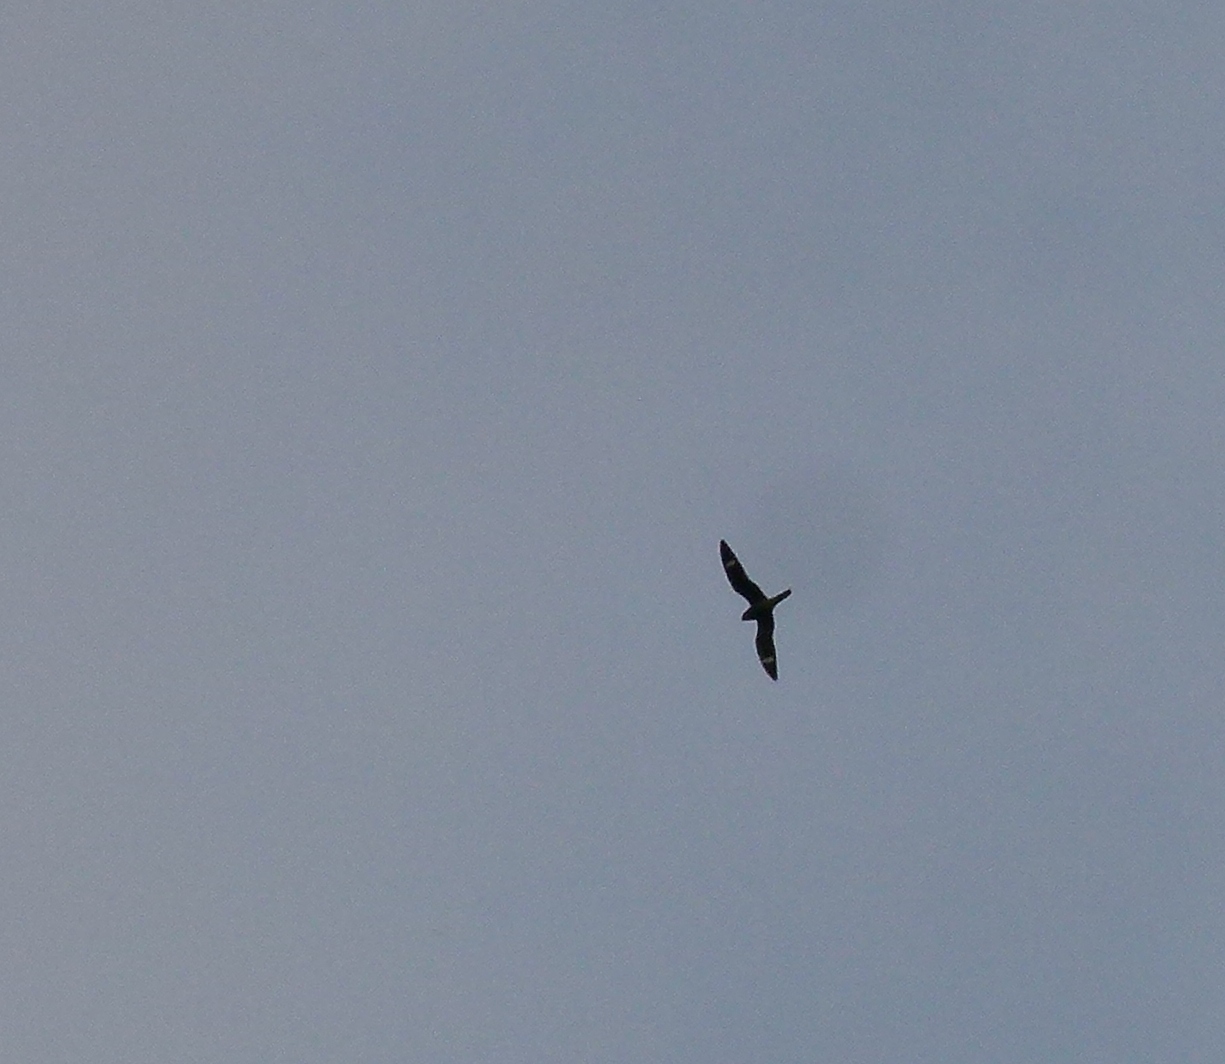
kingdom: Animalia
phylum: Chordata
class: Aves
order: Caprimulgiformes
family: Caprimulgidae
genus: Chordeiles
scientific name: Chordeiles minor
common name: Common nighthawk
